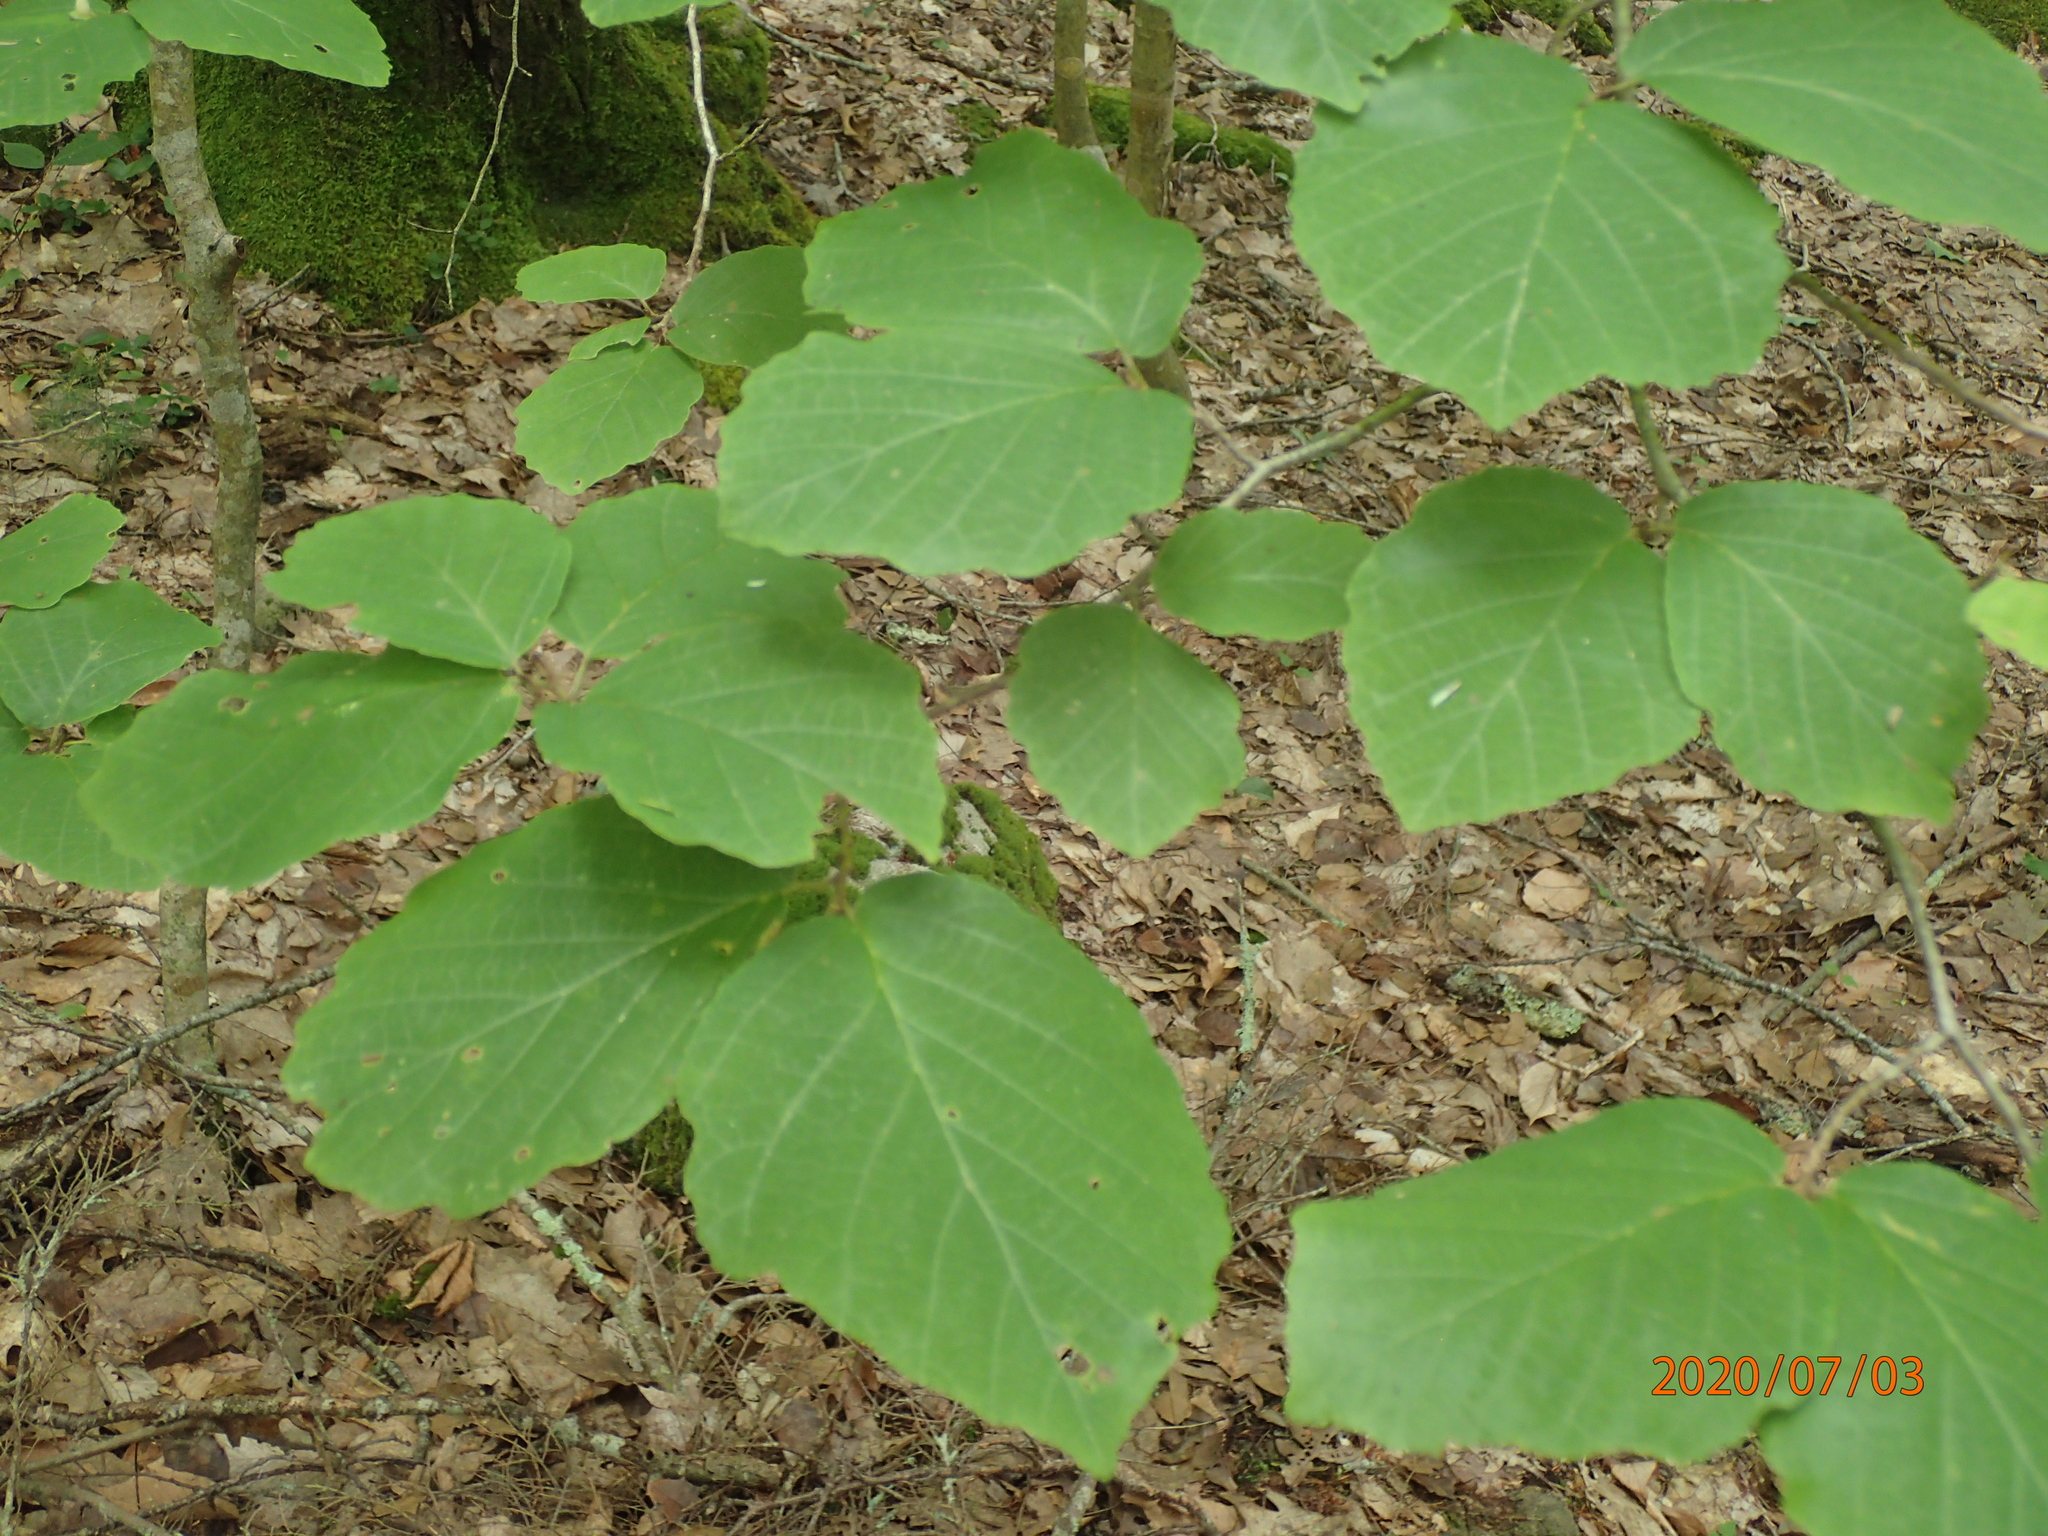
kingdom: Plantae
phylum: Tracheophyta
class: Magnoliopsida
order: Saxifragales
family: Hamamelidaceae
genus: Hamamelis
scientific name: Hamamelis virginiana
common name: Witch-hazel
